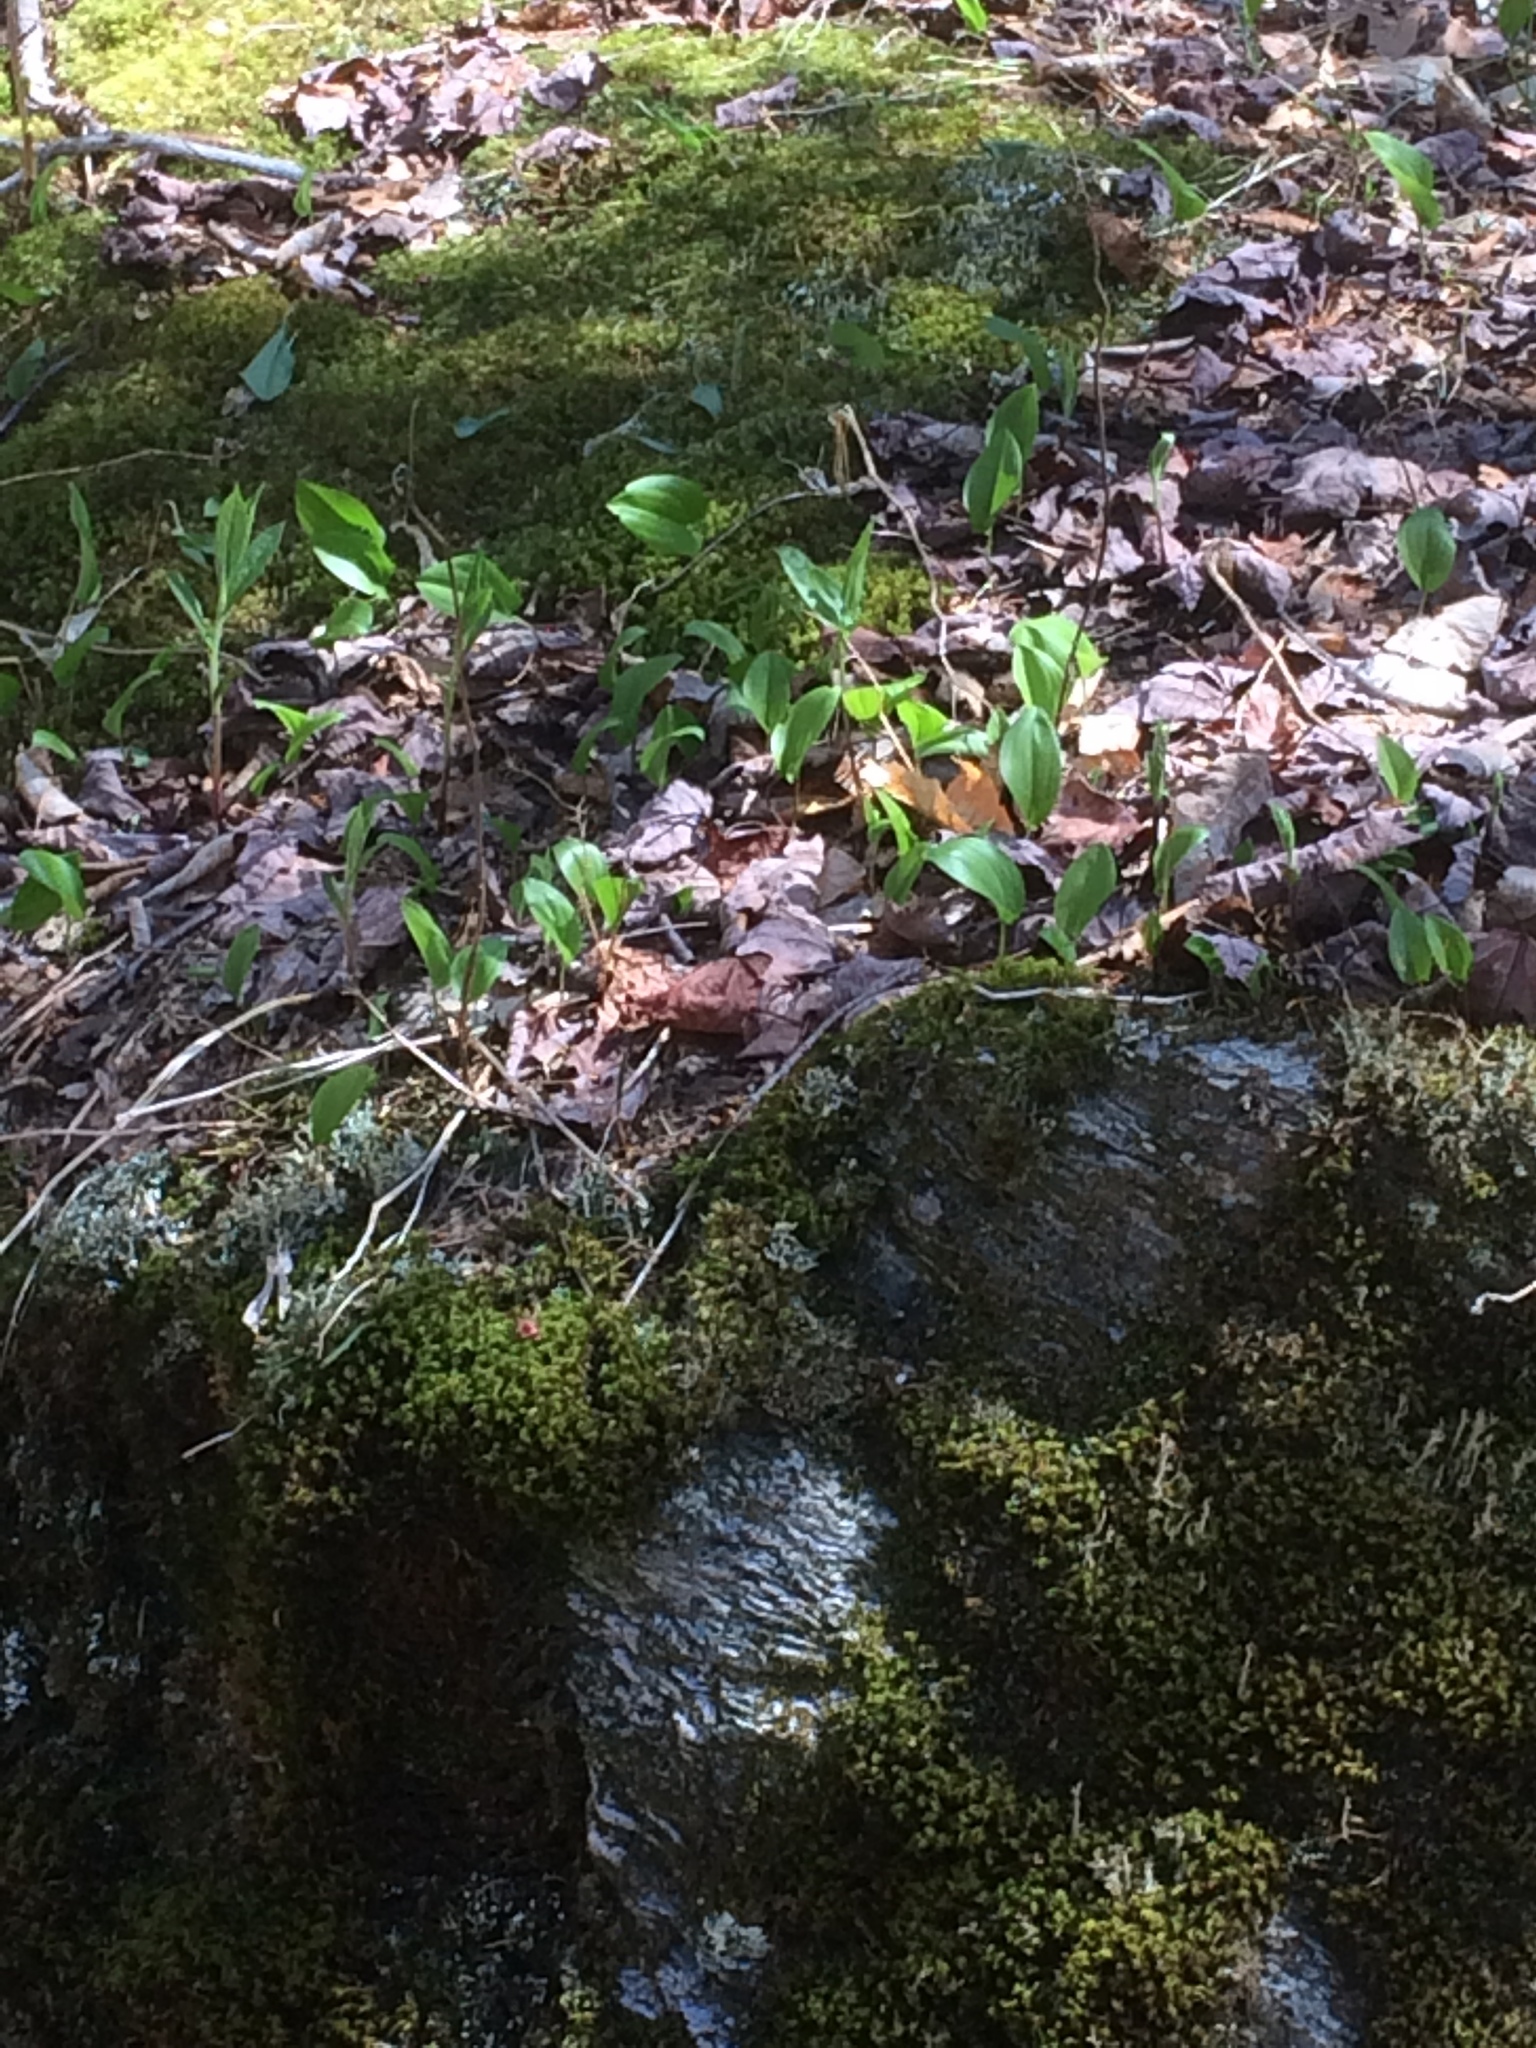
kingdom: Plantae
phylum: Tracheophyta
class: Liliopsida
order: Asparagales
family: Asparagaceae
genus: Maianthemum
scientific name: Maianthemum canadense
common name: False lily-of-the-valley
